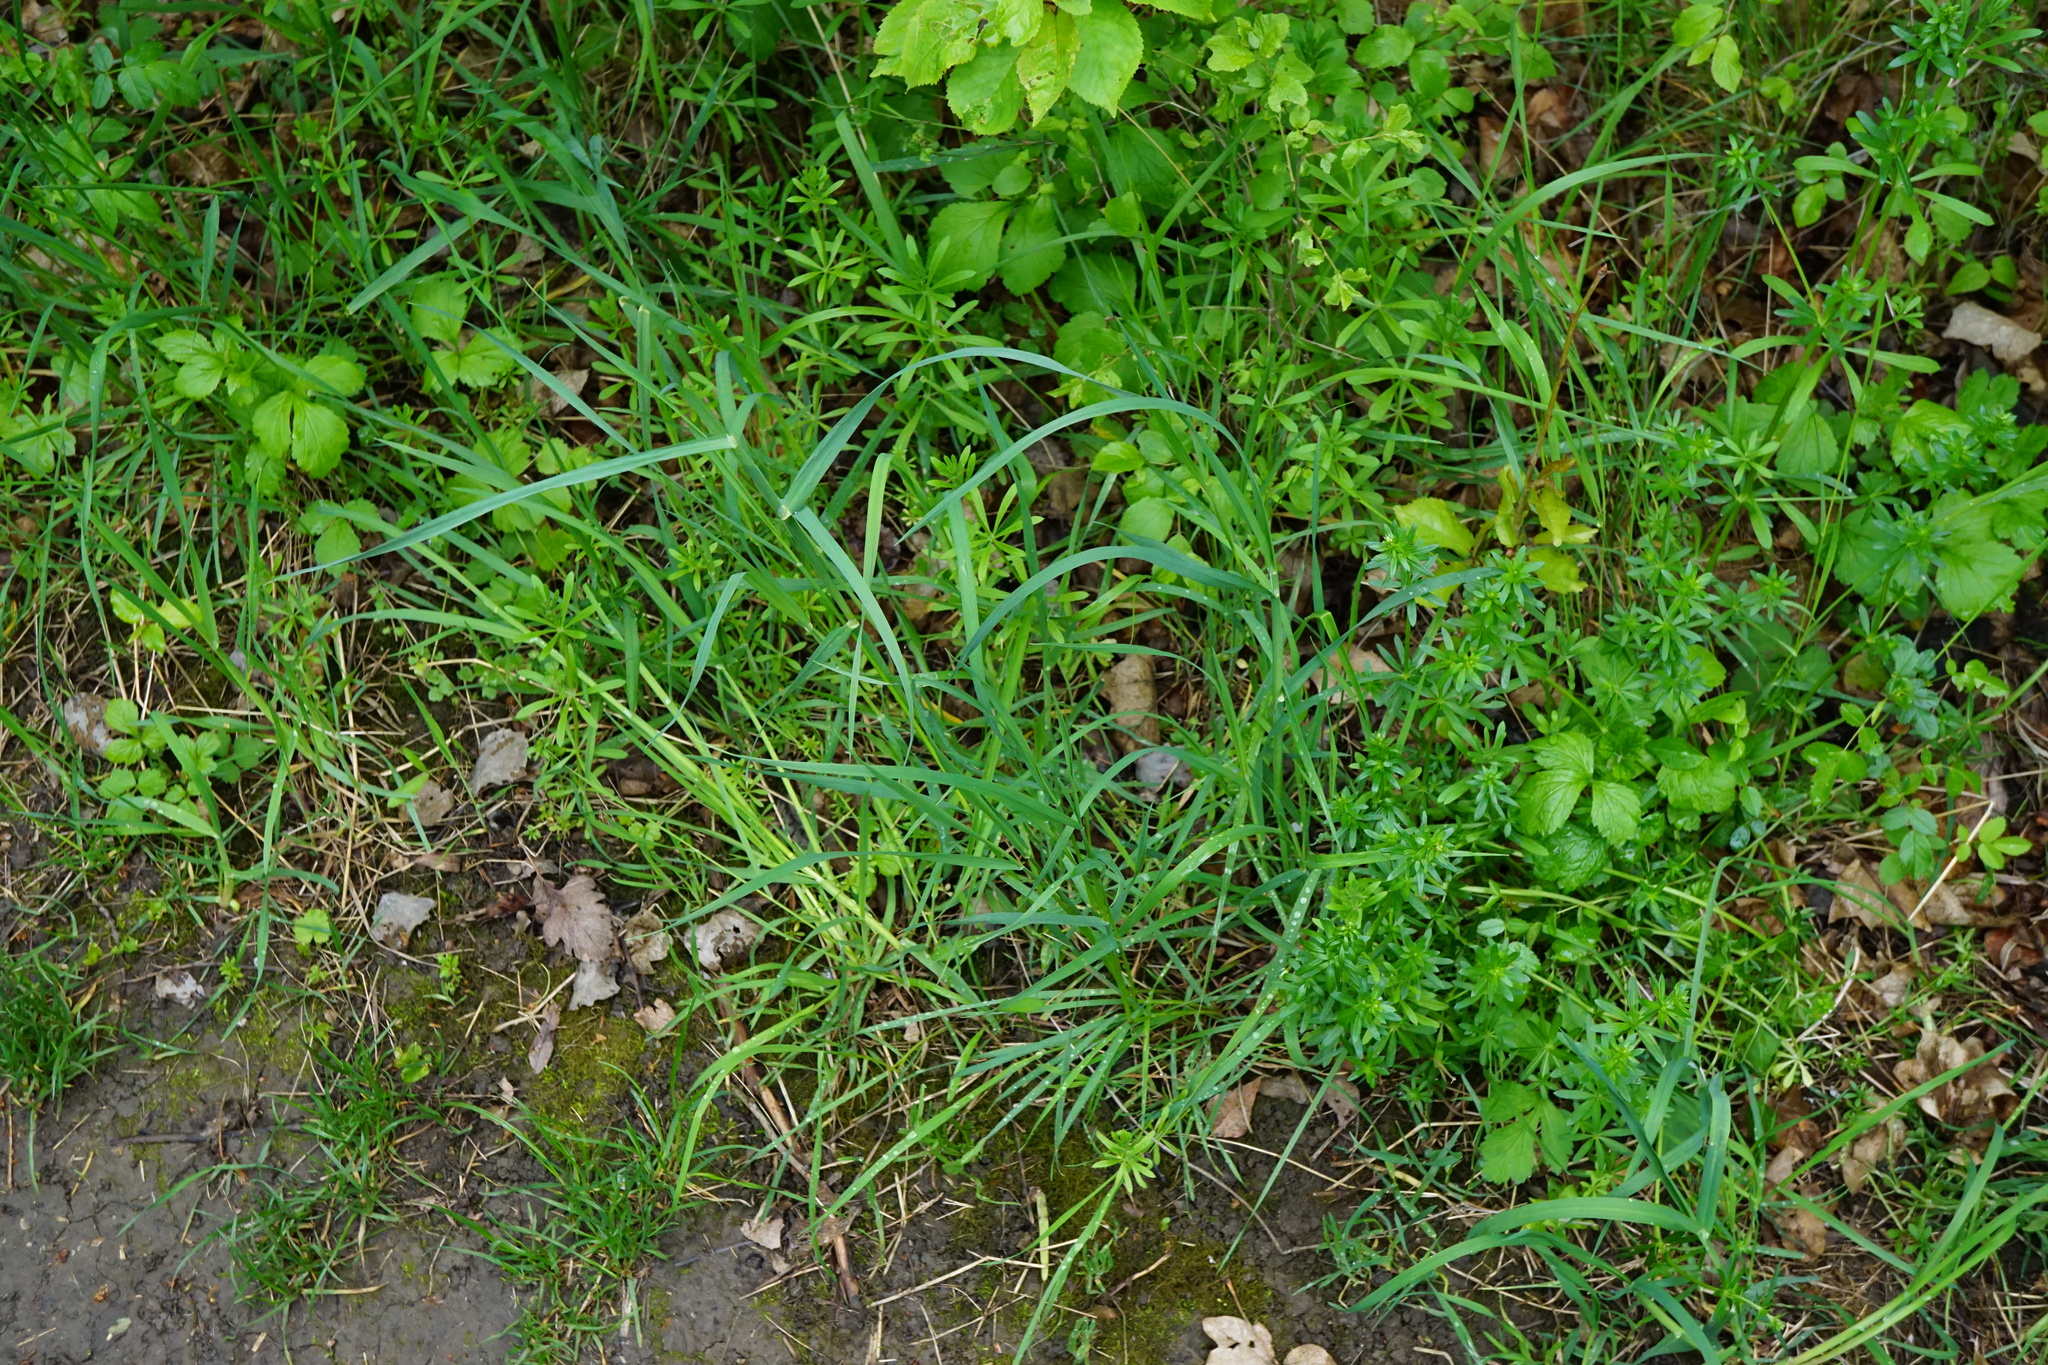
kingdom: Plantae
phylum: Tracheophyta
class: Liliopsida
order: Poales
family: Poaceae
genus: Dactylis
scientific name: Dactylis glomerata
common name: Orchardgrass
